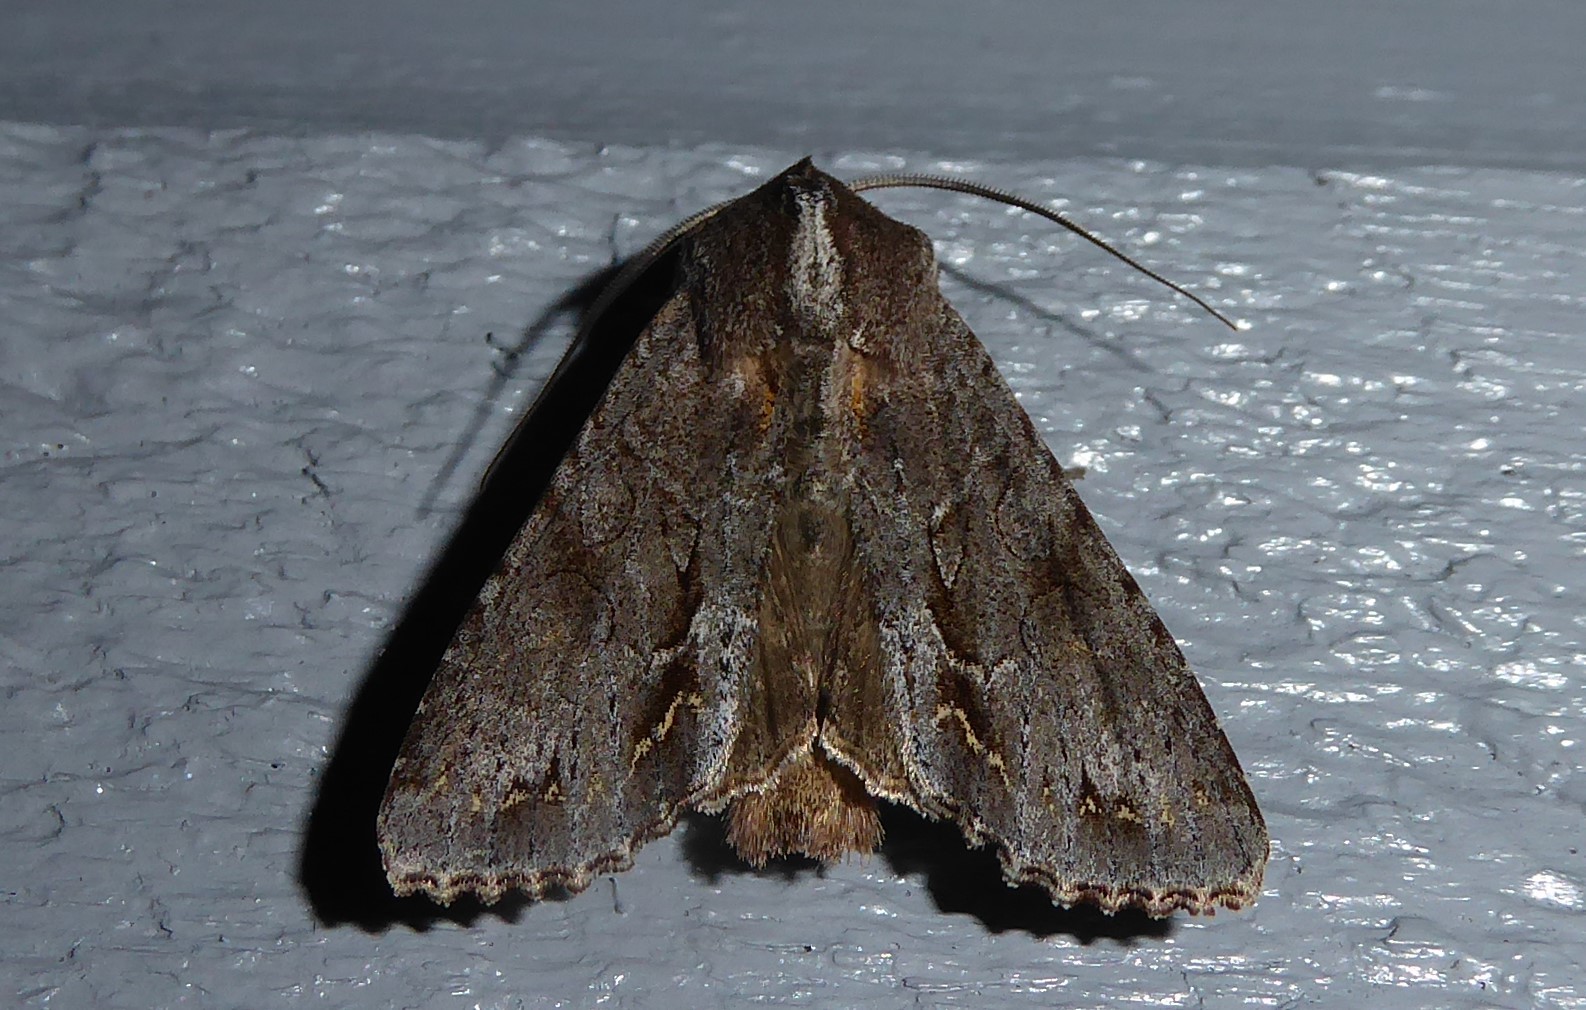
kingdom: Animalia
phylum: Arthropoda
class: Insecta
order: Lepidoptera
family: Noctuidae
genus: Ichneutica
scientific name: Ichneutica
